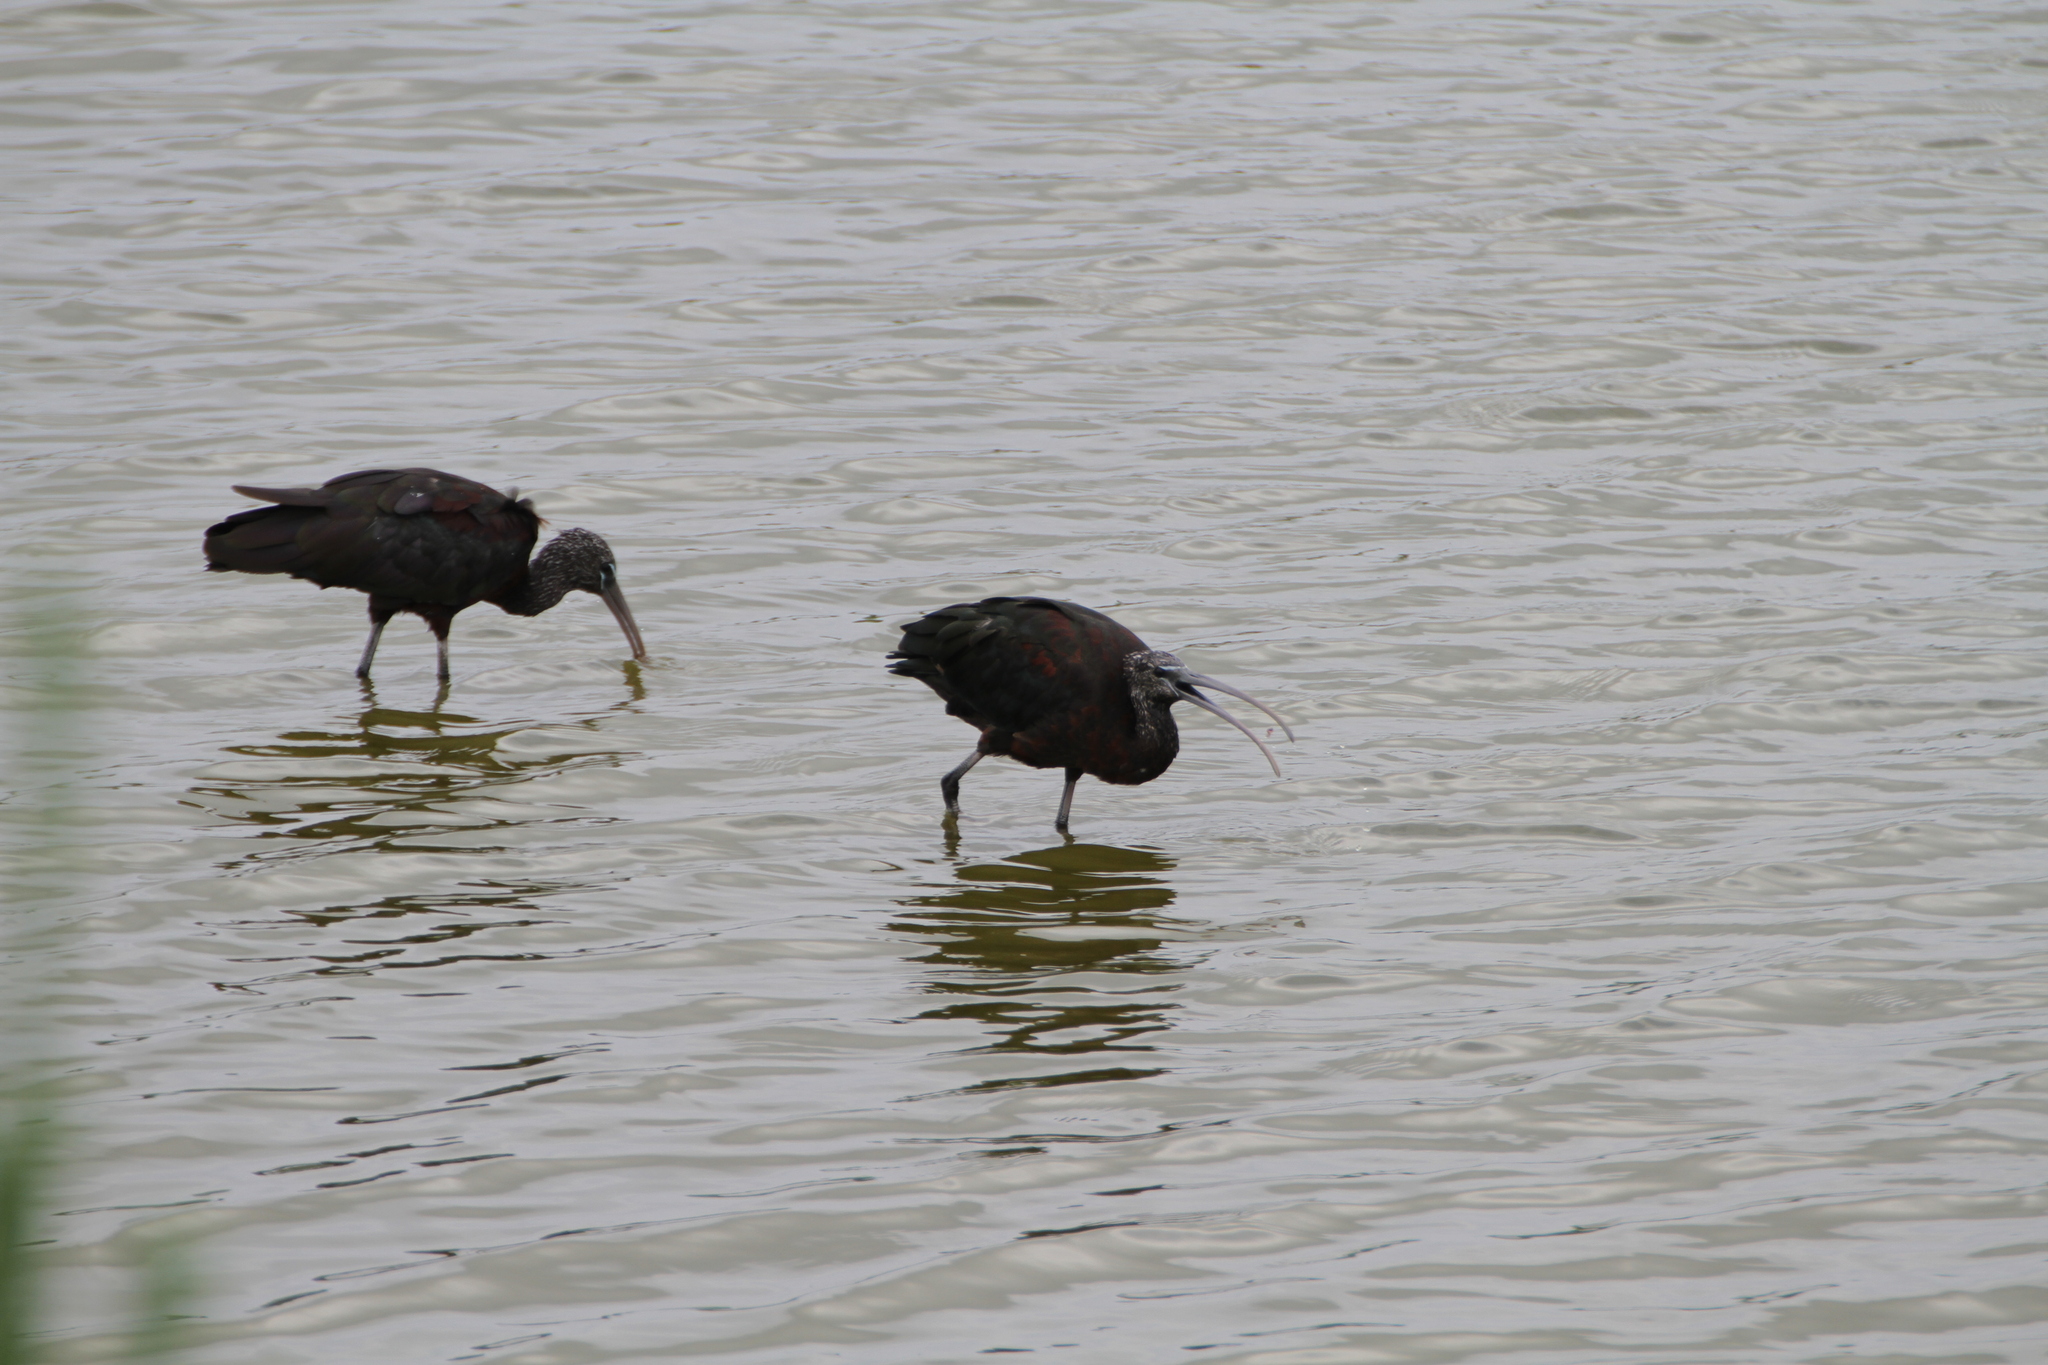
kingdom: Animalia
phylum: Chordata
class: Aves
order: Pelecaniformes
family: Threskiornithidae
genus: Plegadis
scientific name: Plegadis falcinellus
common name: Glossy ibis
